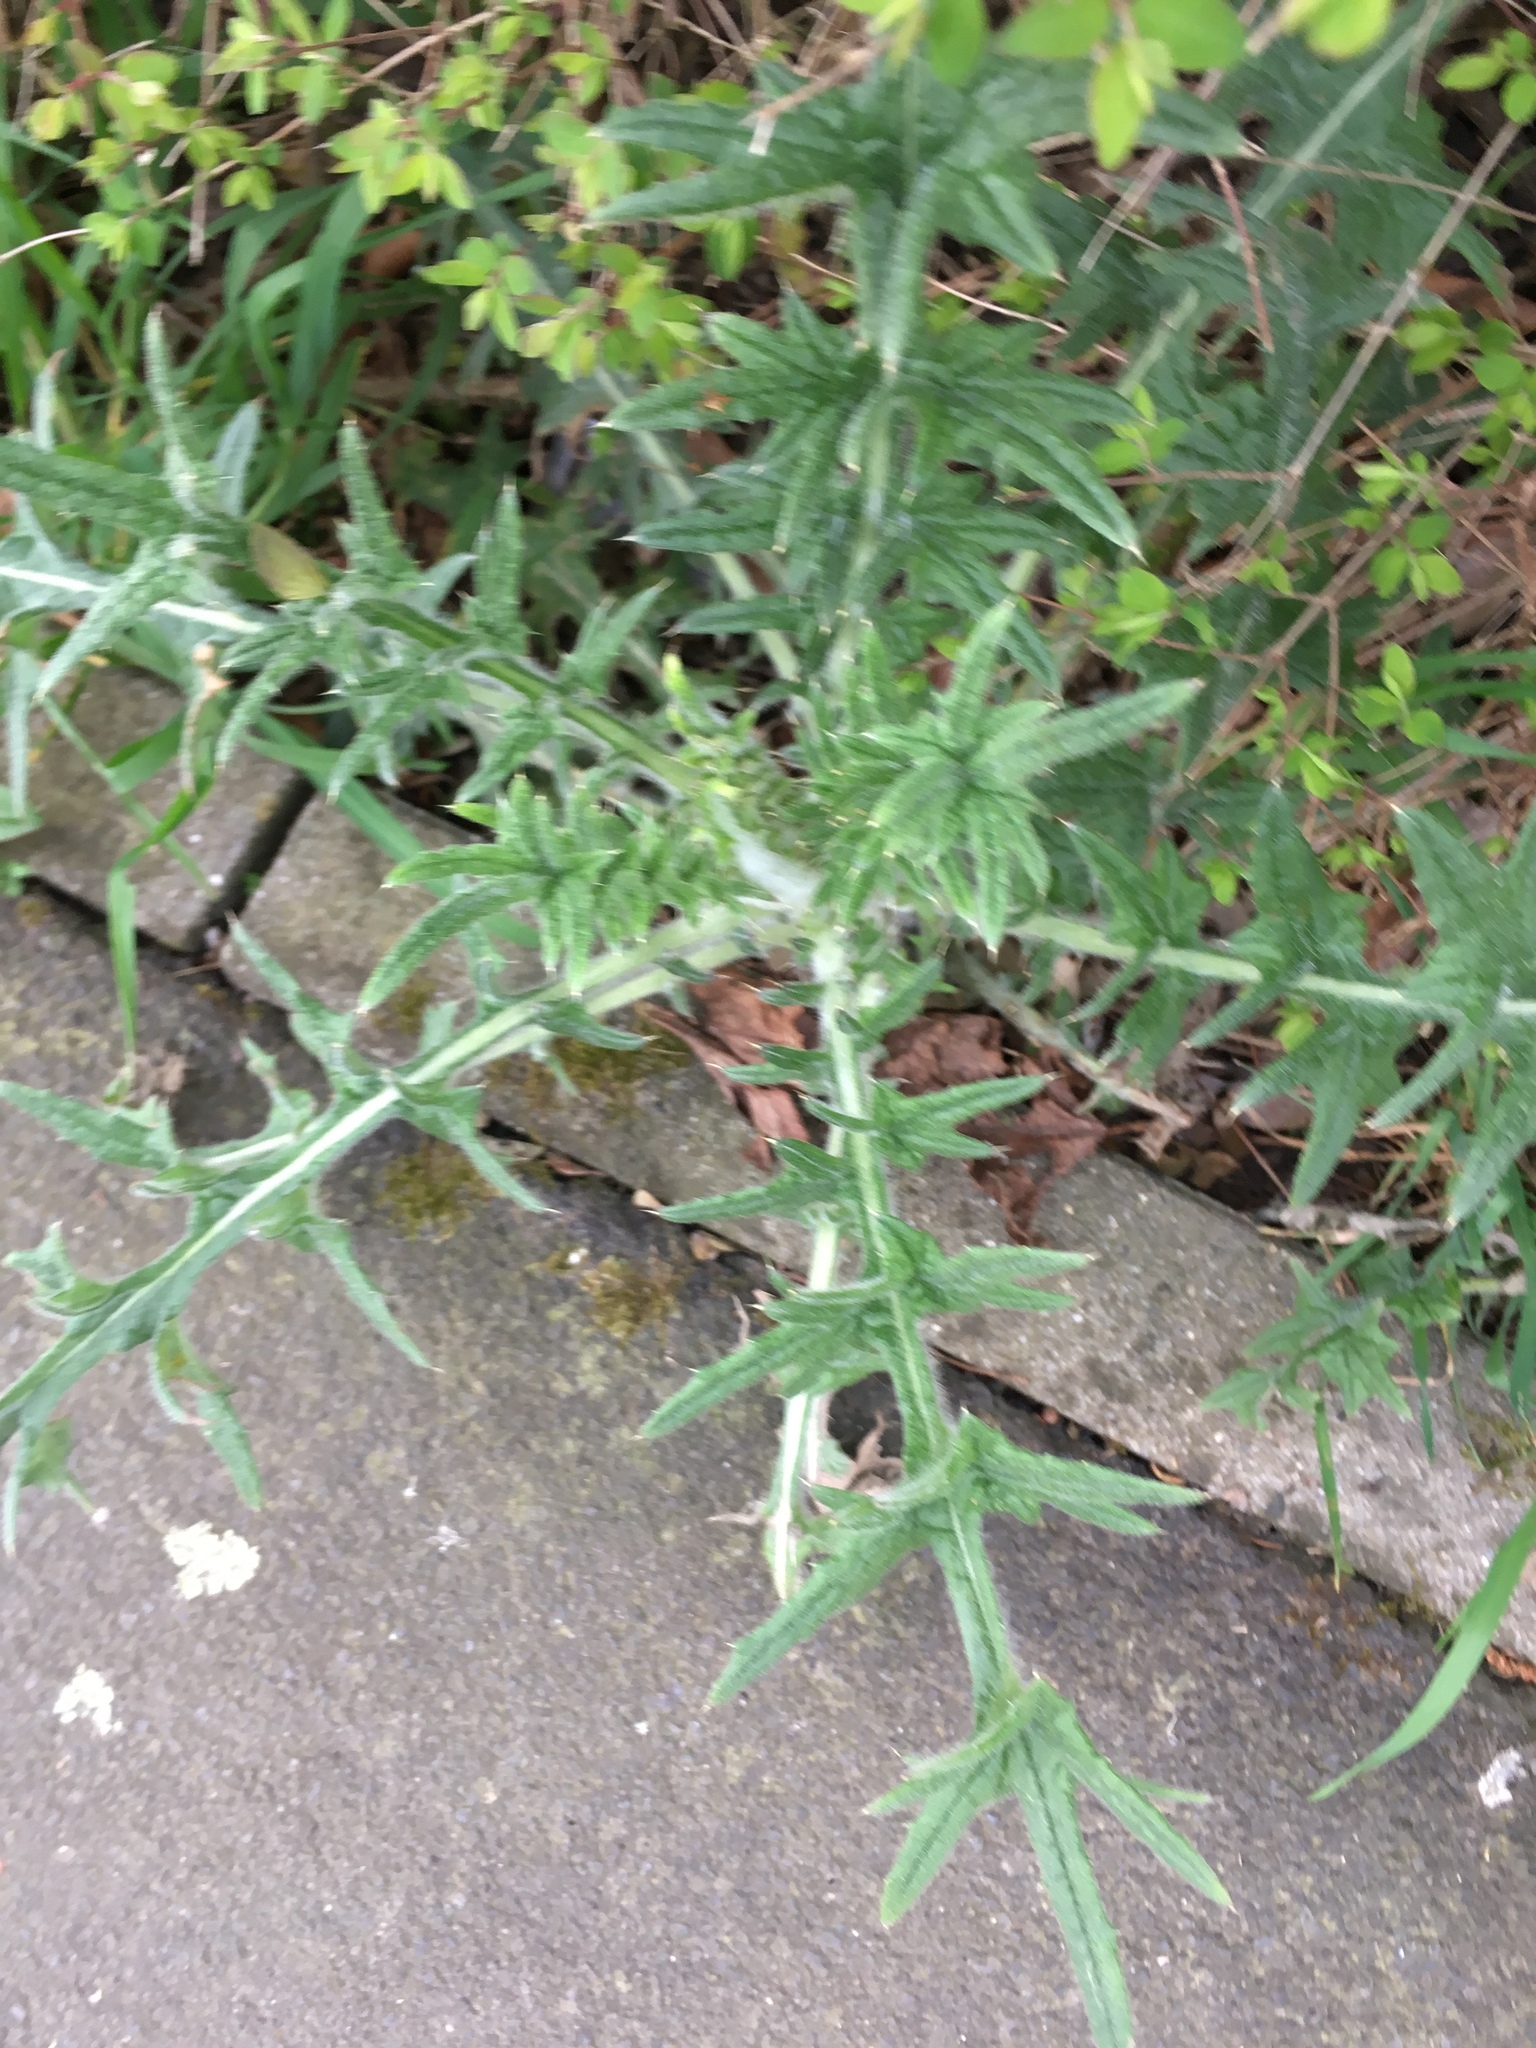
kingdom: Plantae
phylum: Tracheophyta
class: Magnoliopsida
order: Asterales
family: Asteraceae
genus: Cirsium
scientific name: Cirsium vulgare
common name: Bull thistle
